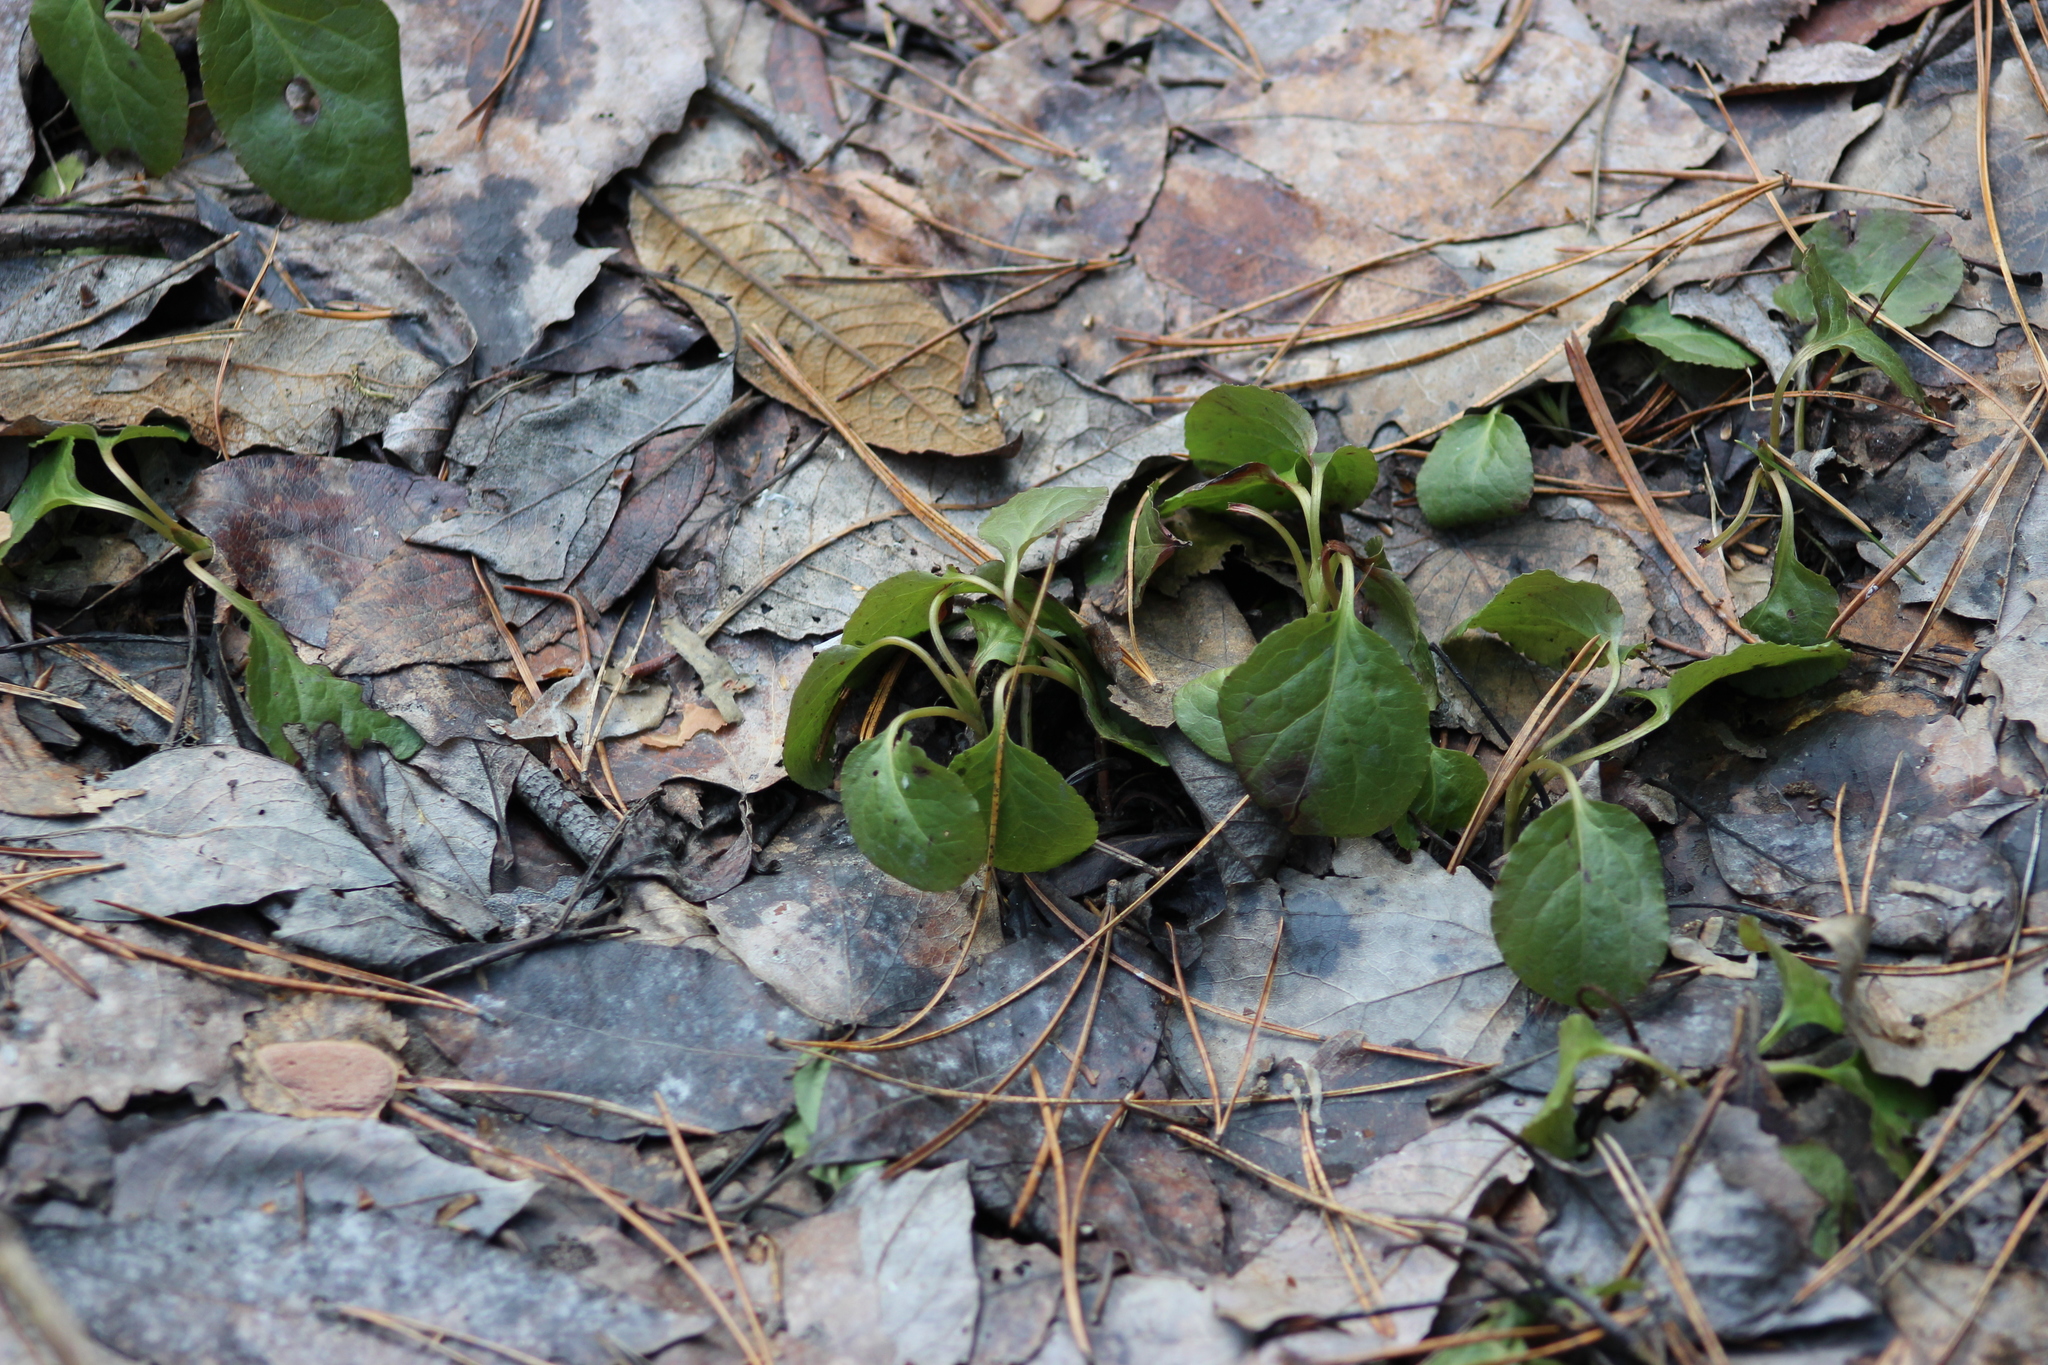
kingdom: Plantae
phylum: Tracheophyta
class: Magnoliopsida
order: Ericales
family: Ericaceae
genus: Orthilia
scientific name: Orthilia secunda
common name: One-sided orthilia
